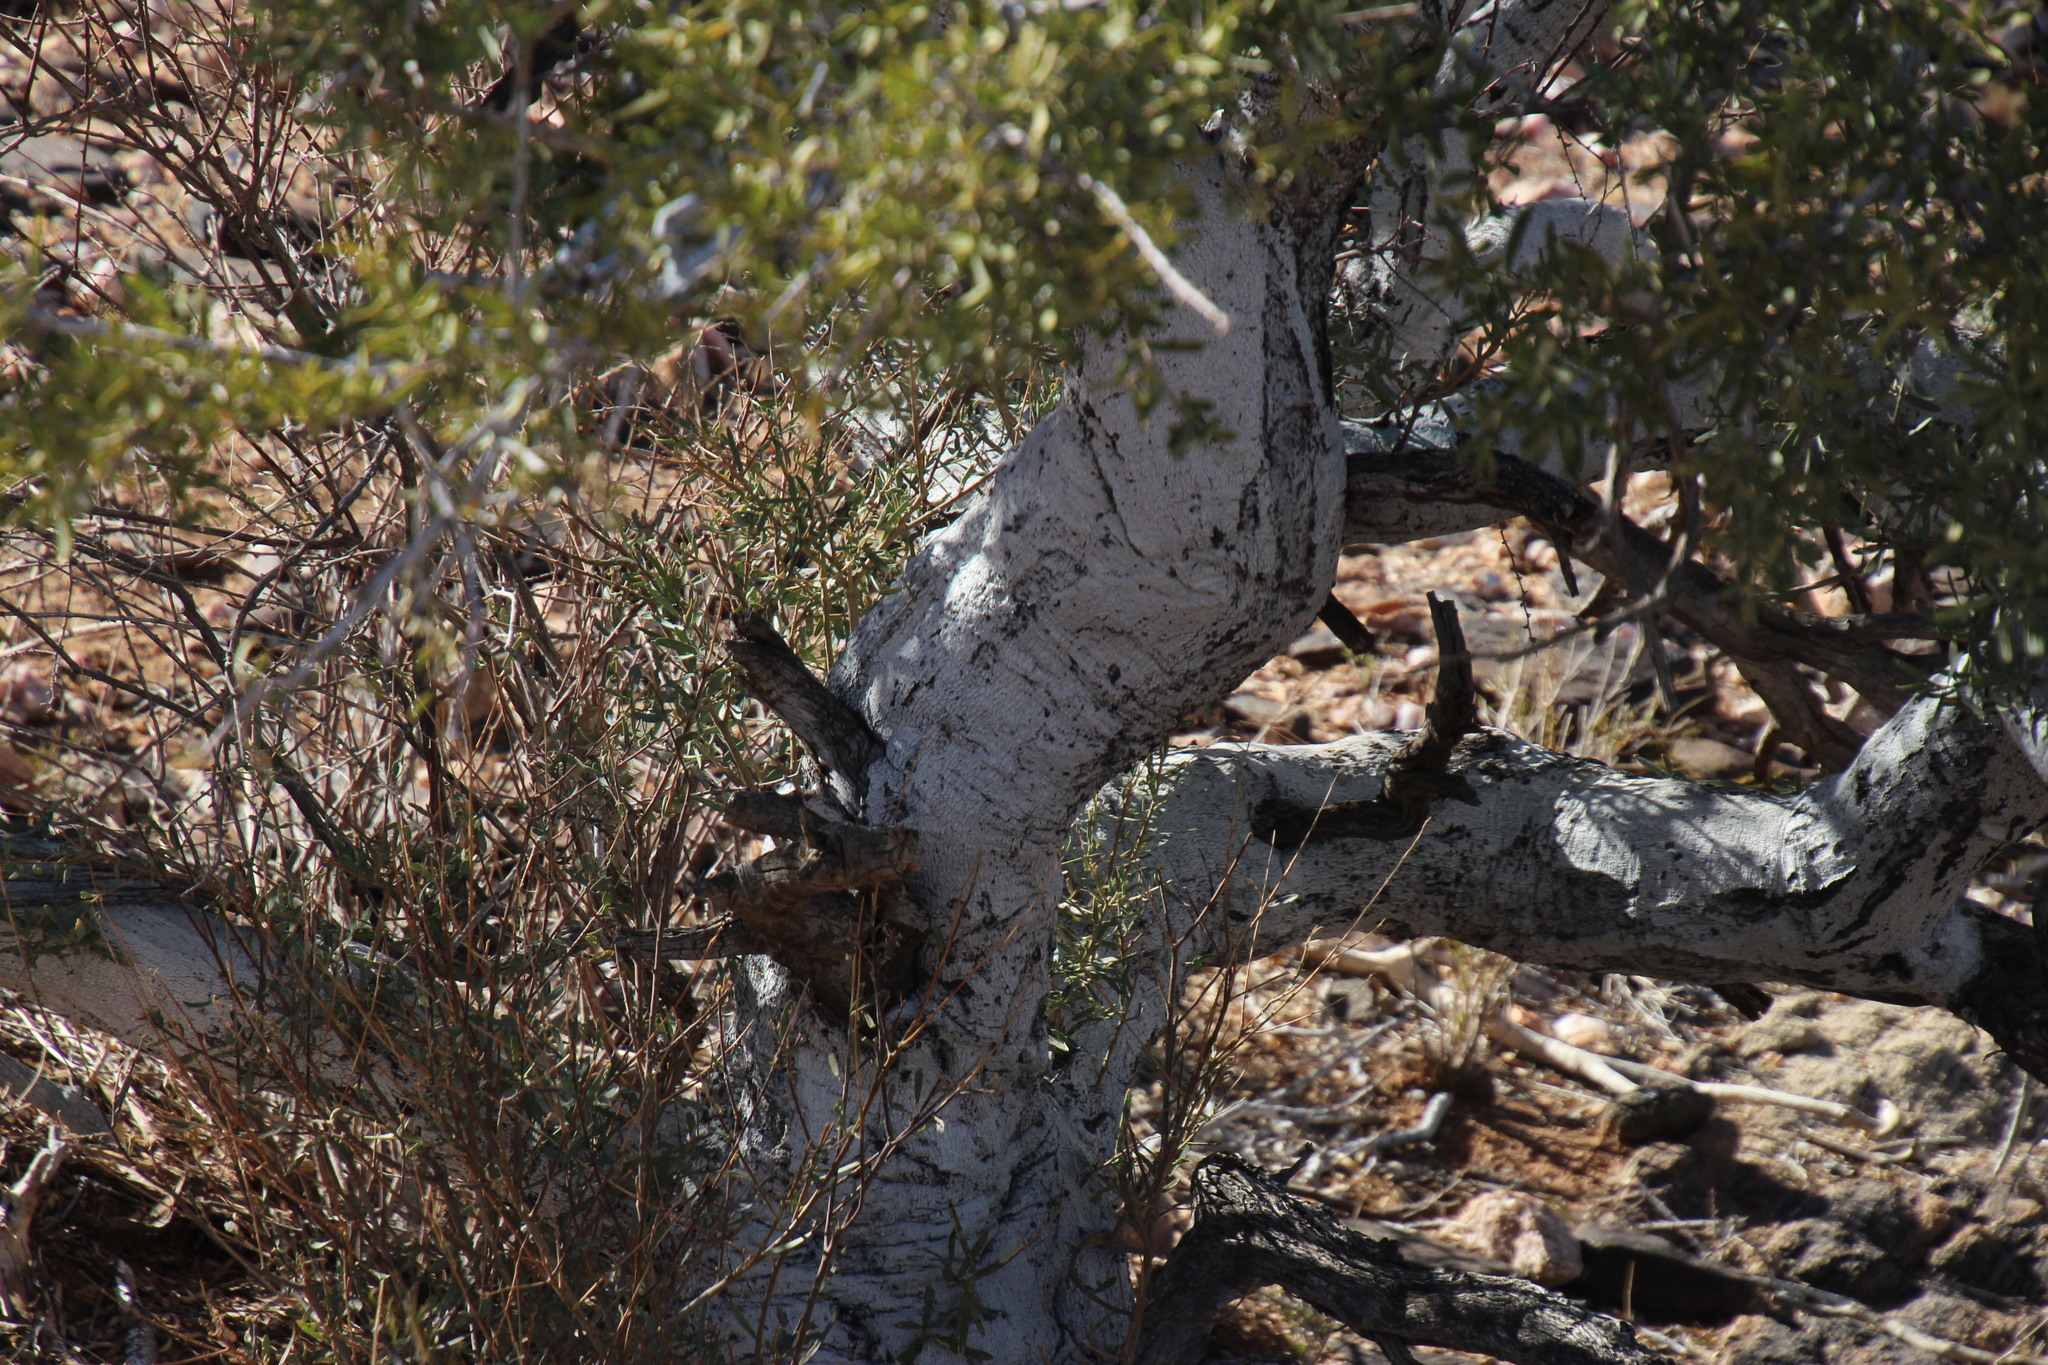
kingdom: Plantae
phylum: Tracheophyta
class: Magnoliopsida
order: Brassicales
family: Capparaceae
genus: Boscia
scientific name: Boscia albitrunca
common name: Caper bush
